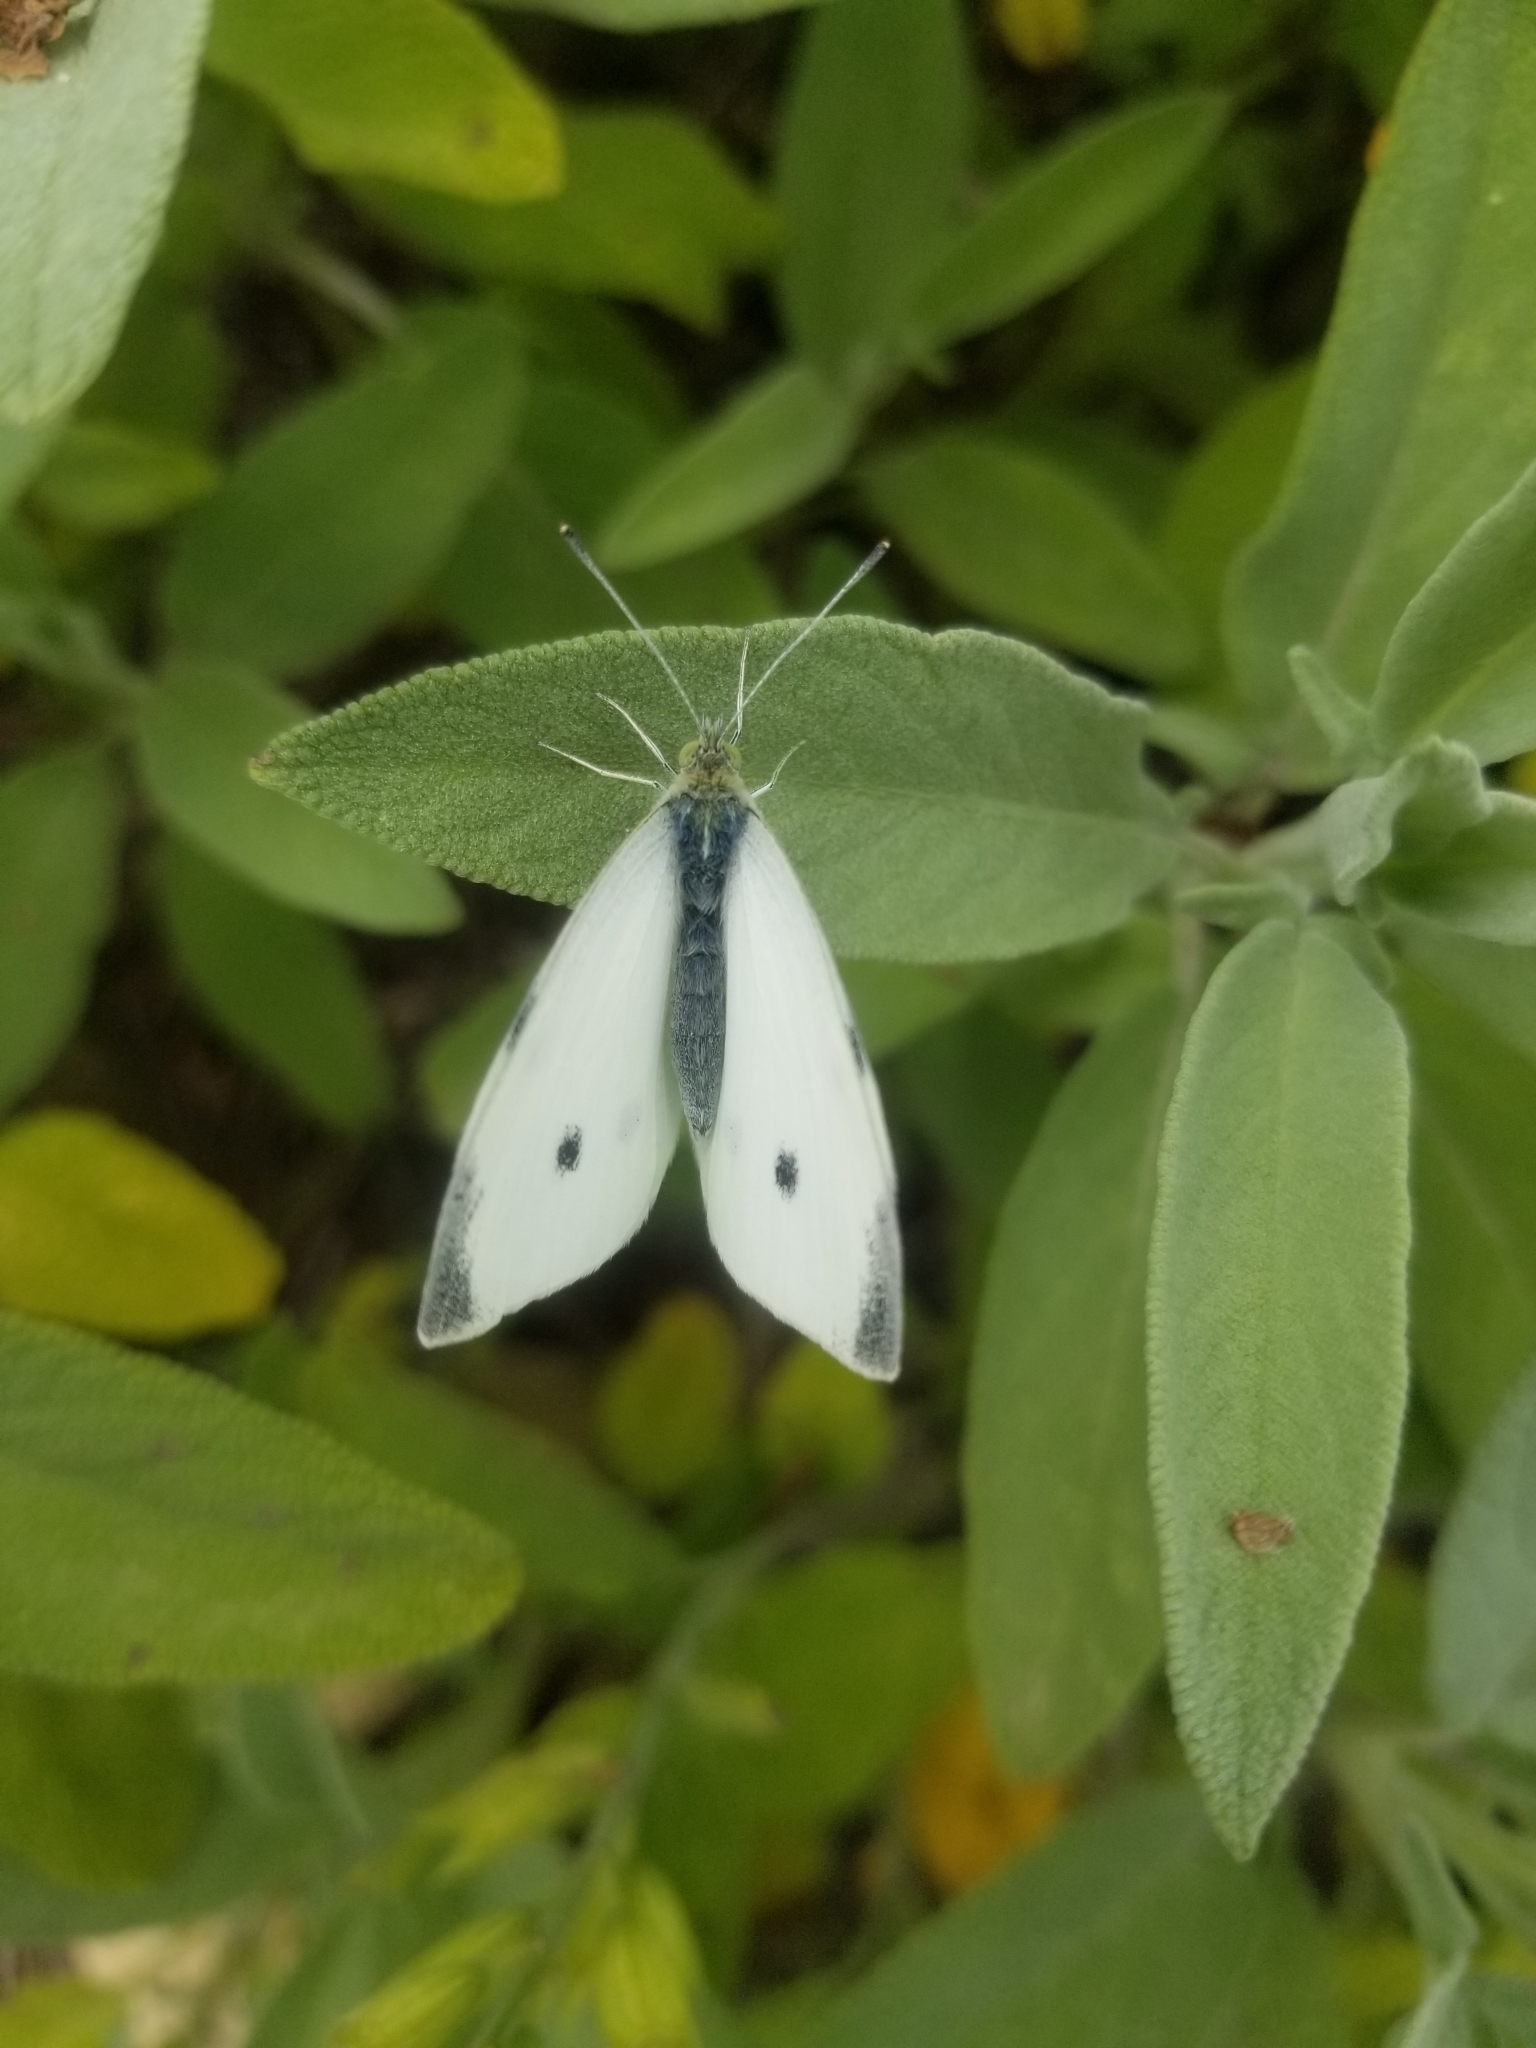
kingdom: Animalia
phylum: Arthropoda
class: Insecta
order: Lepidoptera
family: Pieridae
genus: Pieris
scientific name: Pieris rapae
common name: Small white
